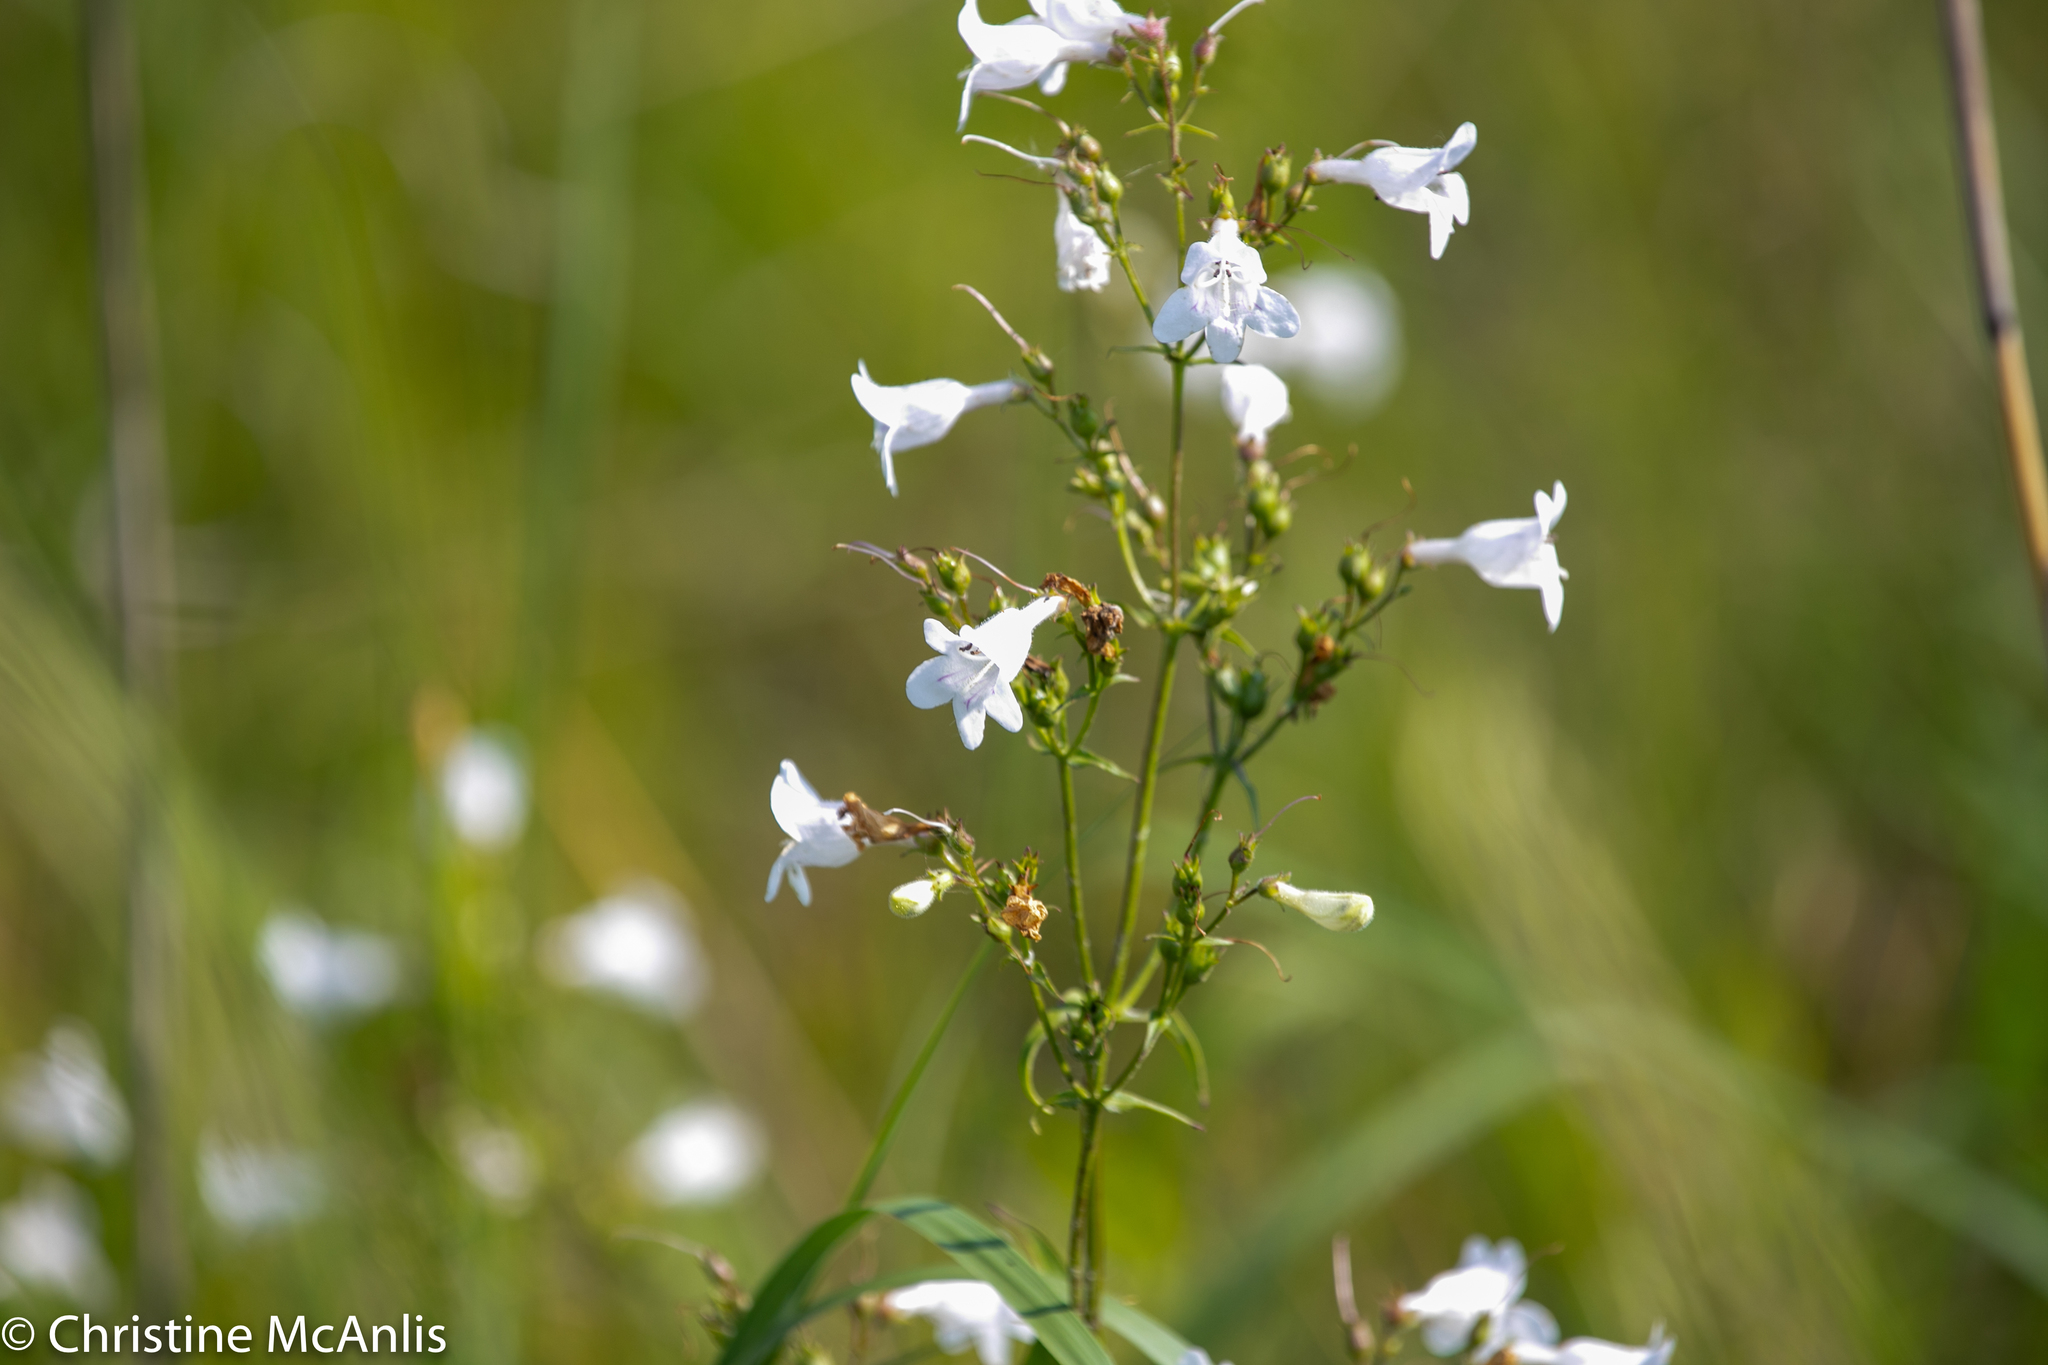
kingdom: Plantae
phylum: Tracheophyta
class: Magnoliopsida
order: Lamiales
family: Plantaginaceae
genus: Penstemon
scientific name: Penstemon digitalis
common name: Foxglove beardtongue
